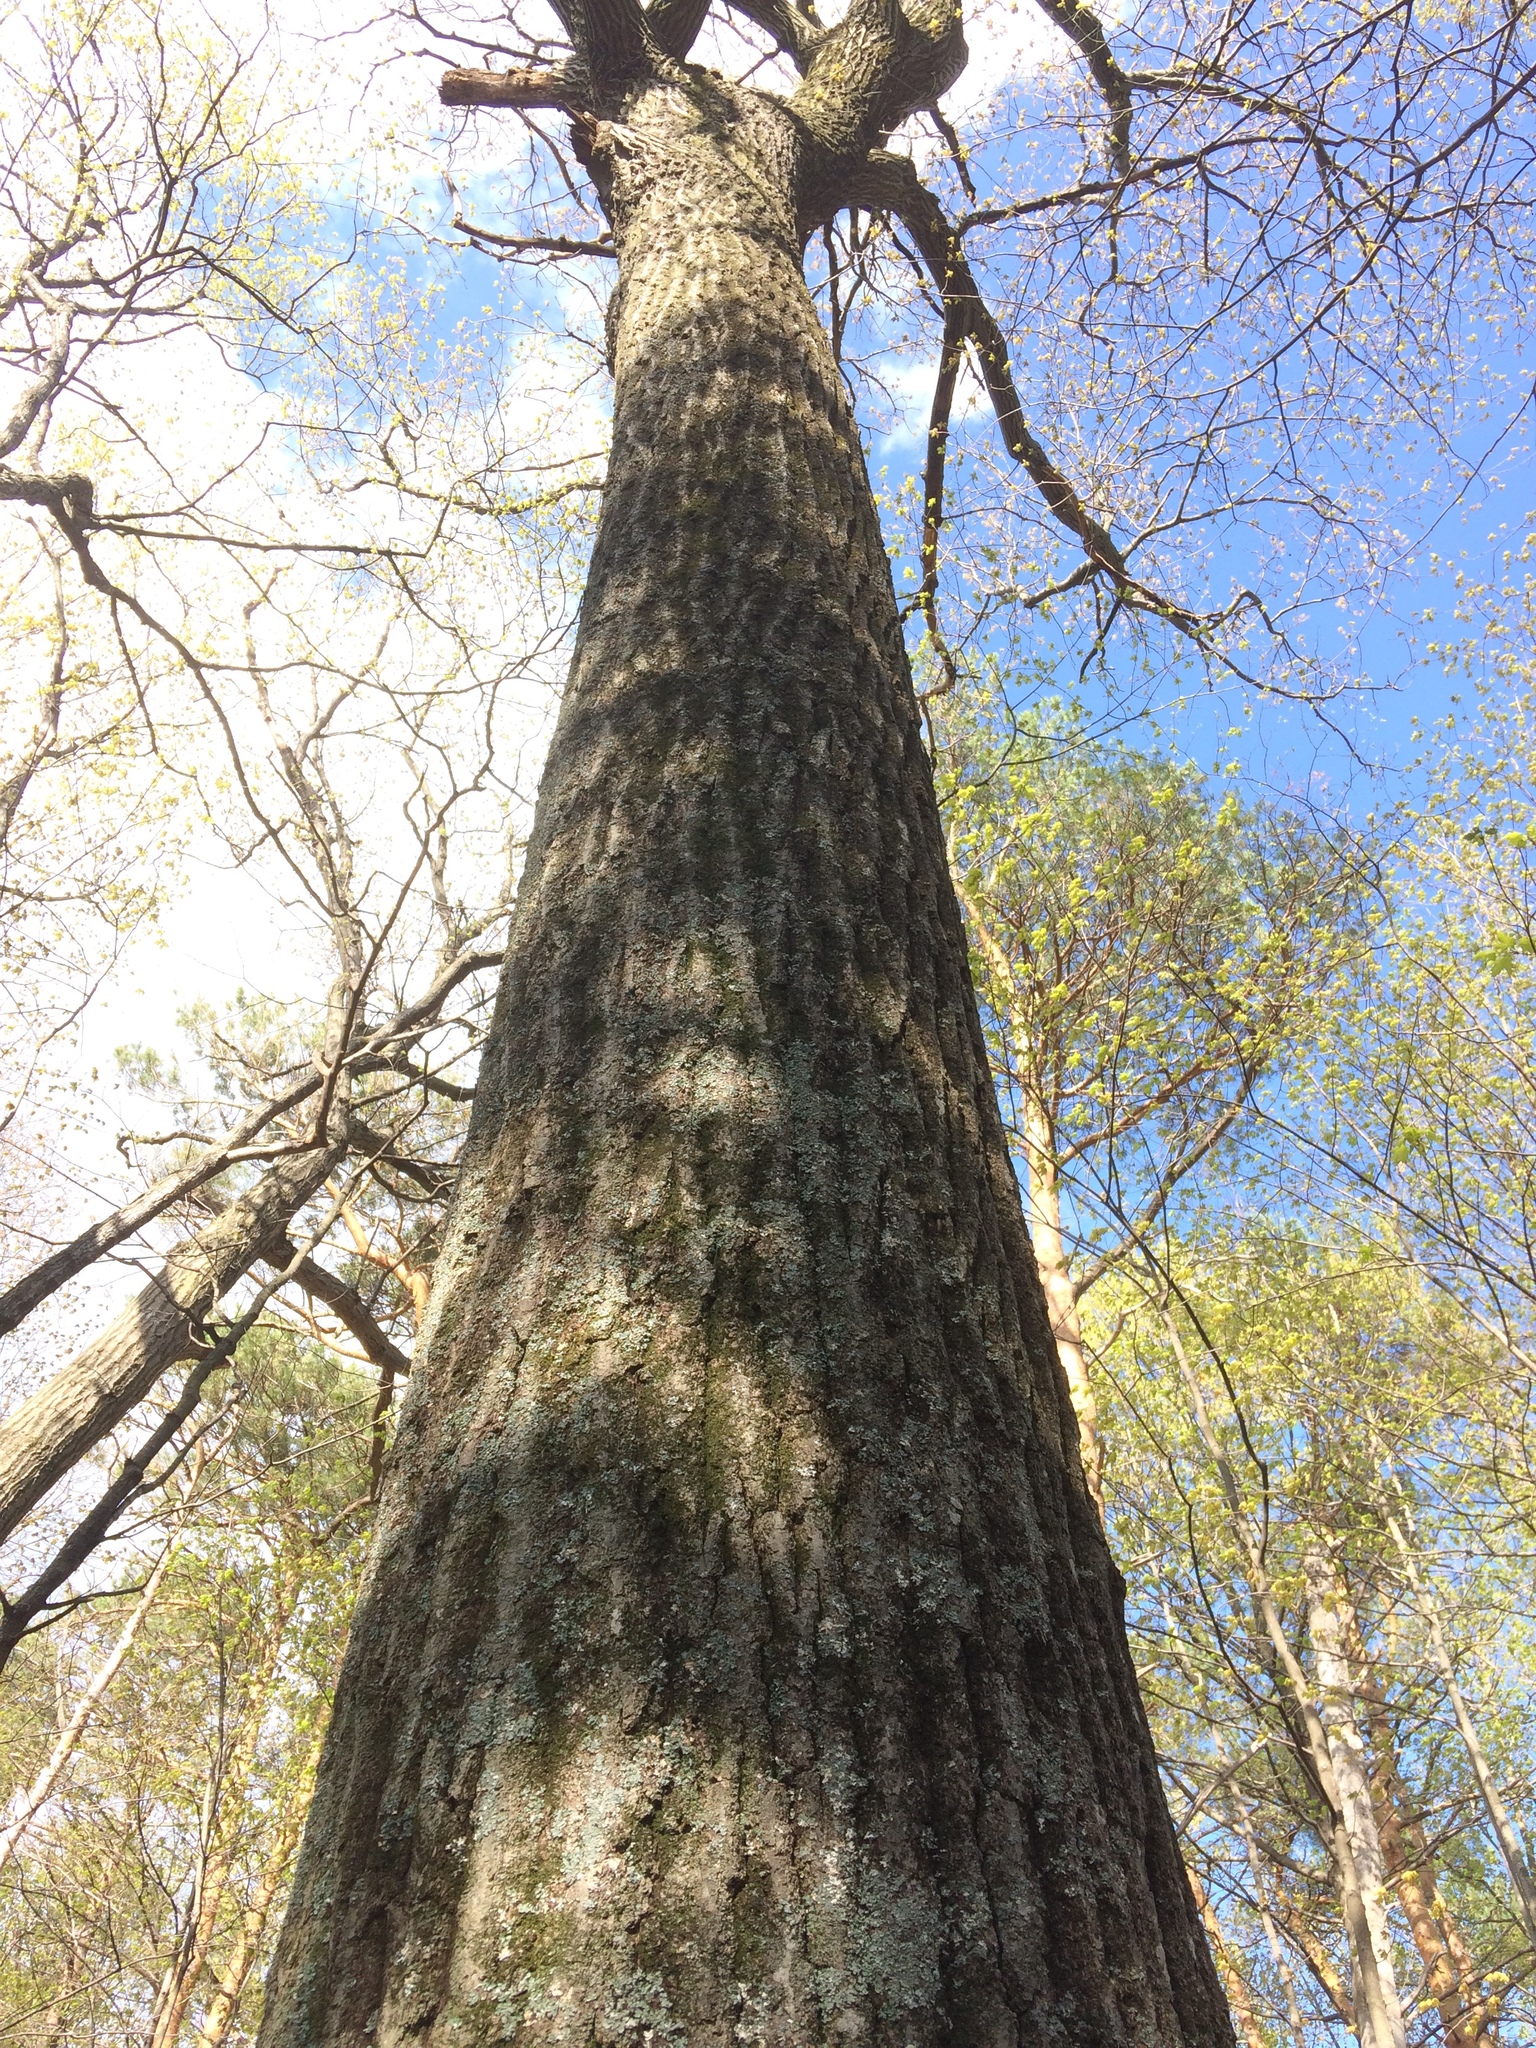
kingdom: Plantae
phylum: Tracheophyta
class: Magnoliopsida
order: Fagales
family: Fagaceae
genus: Quercus
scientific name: Quercus rubra
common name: Red oak
